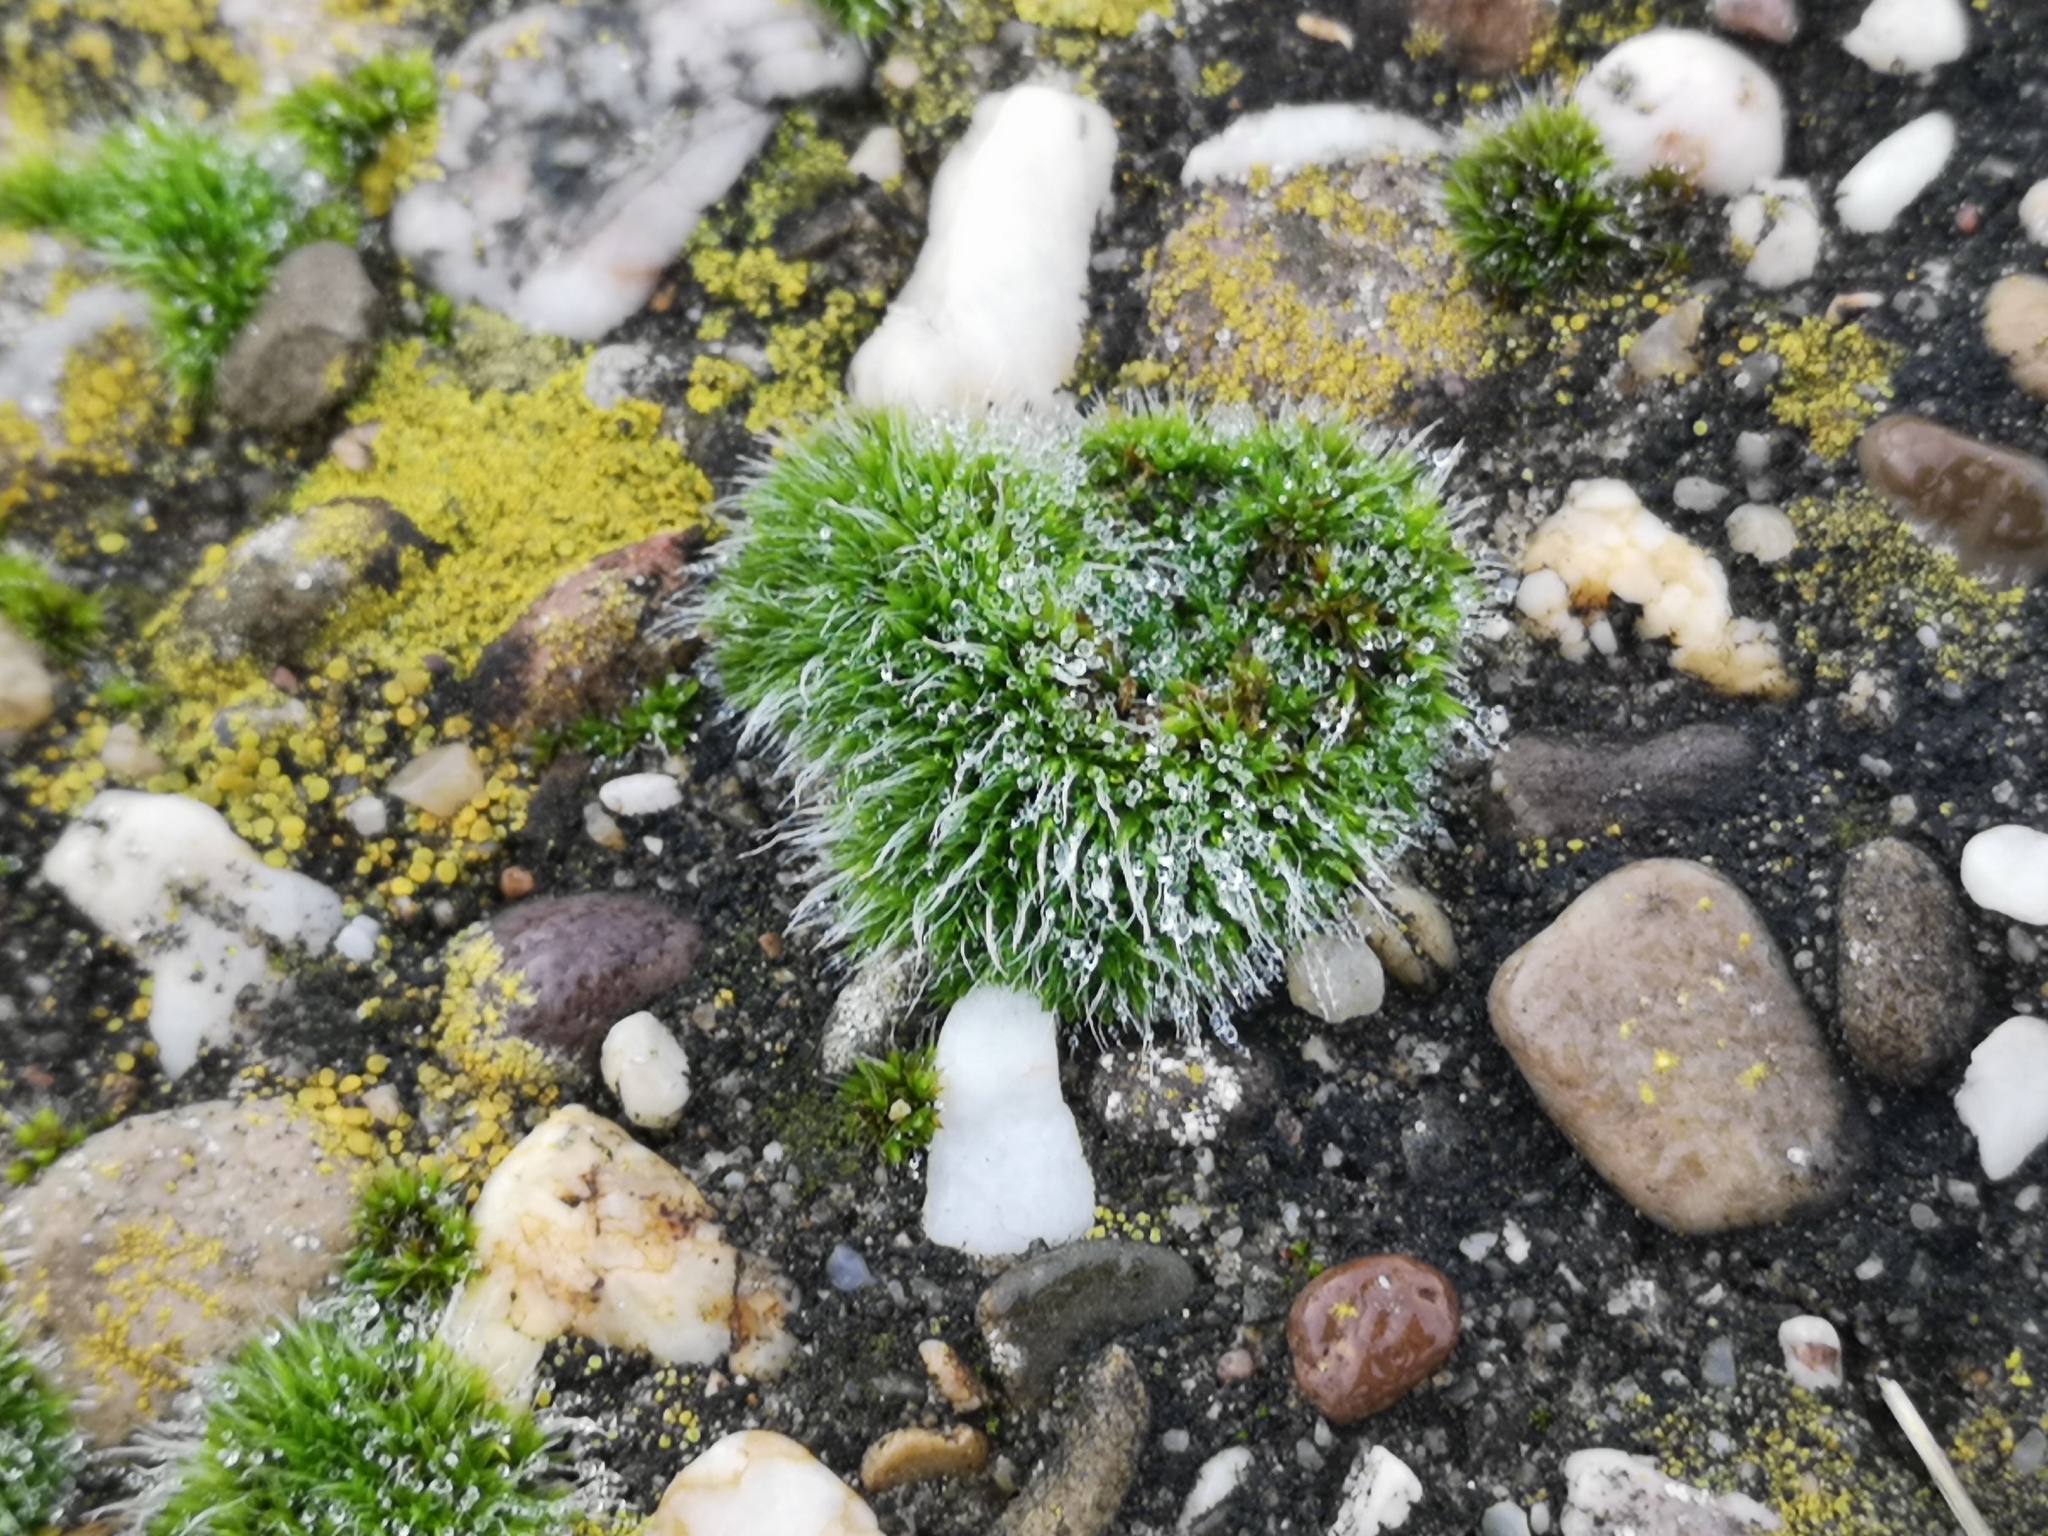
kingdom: Plantae
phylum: Bryophyta
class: Bryopsida
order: Grimmiales
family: Grimmiaceae
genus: Grimmia
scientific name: Grimmia pulvinata
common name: Grey-cushioned grimmia
